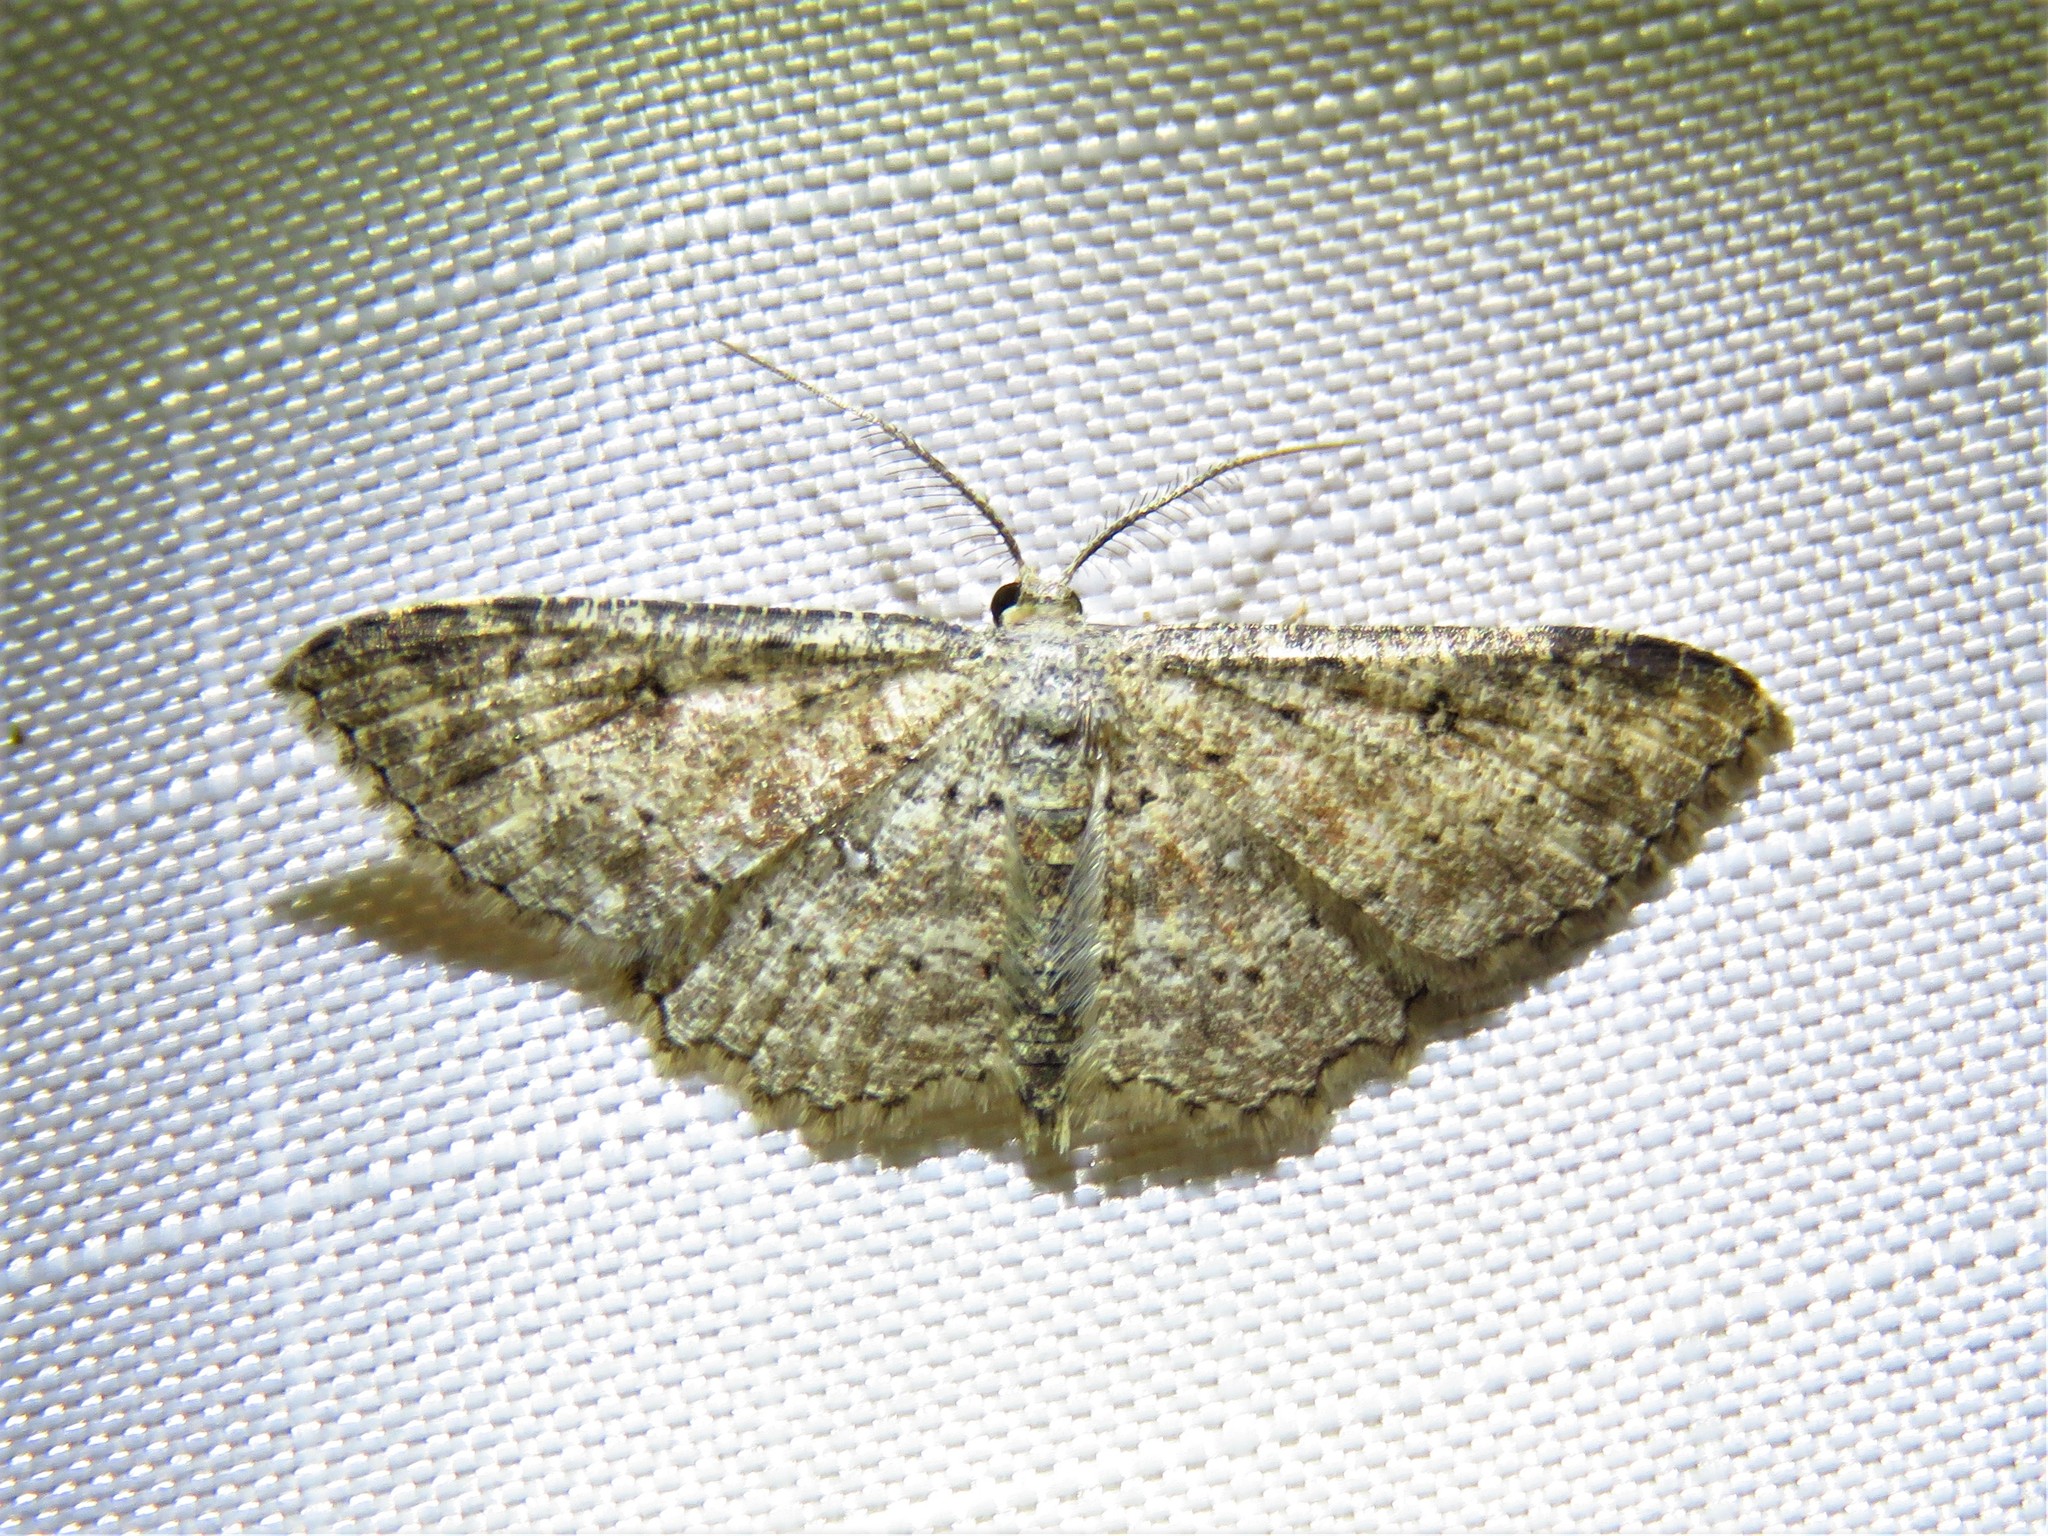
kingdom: Animalia
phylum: Arthropoda
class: Insecta
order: Lepidoptera
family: Geometridae
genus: Cyclophora
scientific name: Cyclophora nanaria
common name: Cankerworm
